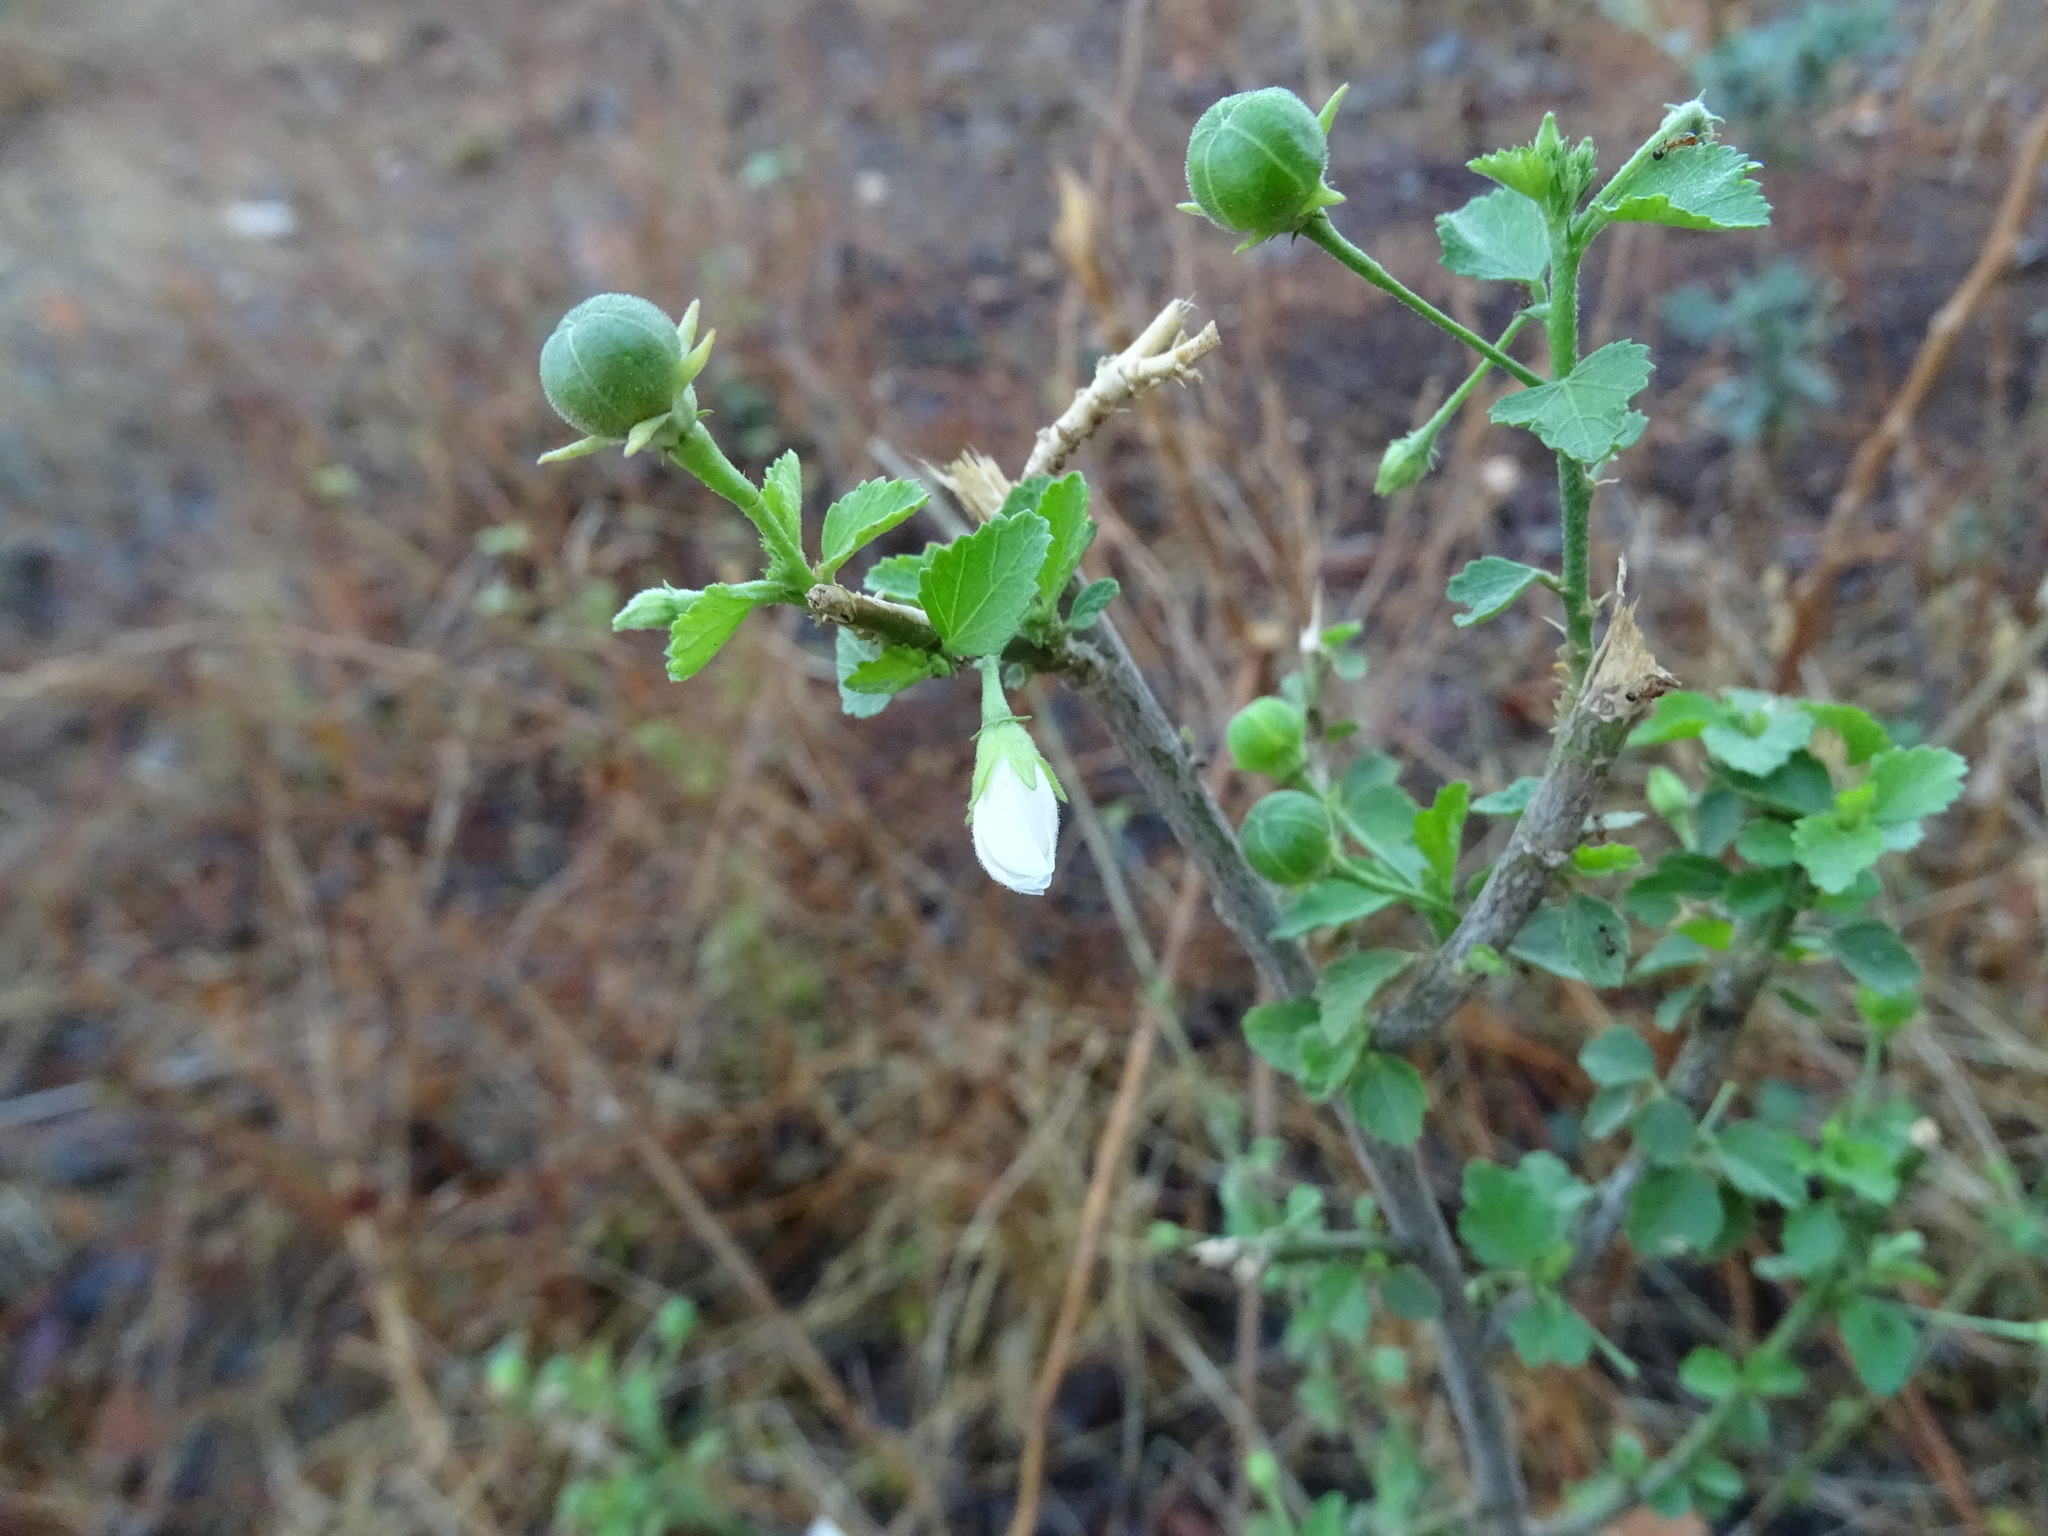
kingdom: Plantae
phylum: Tracheophyta
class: Magnoliopsida
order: Malvales
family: Malvaceae
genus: Hibiscus
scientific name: Hibiscus micranthus
